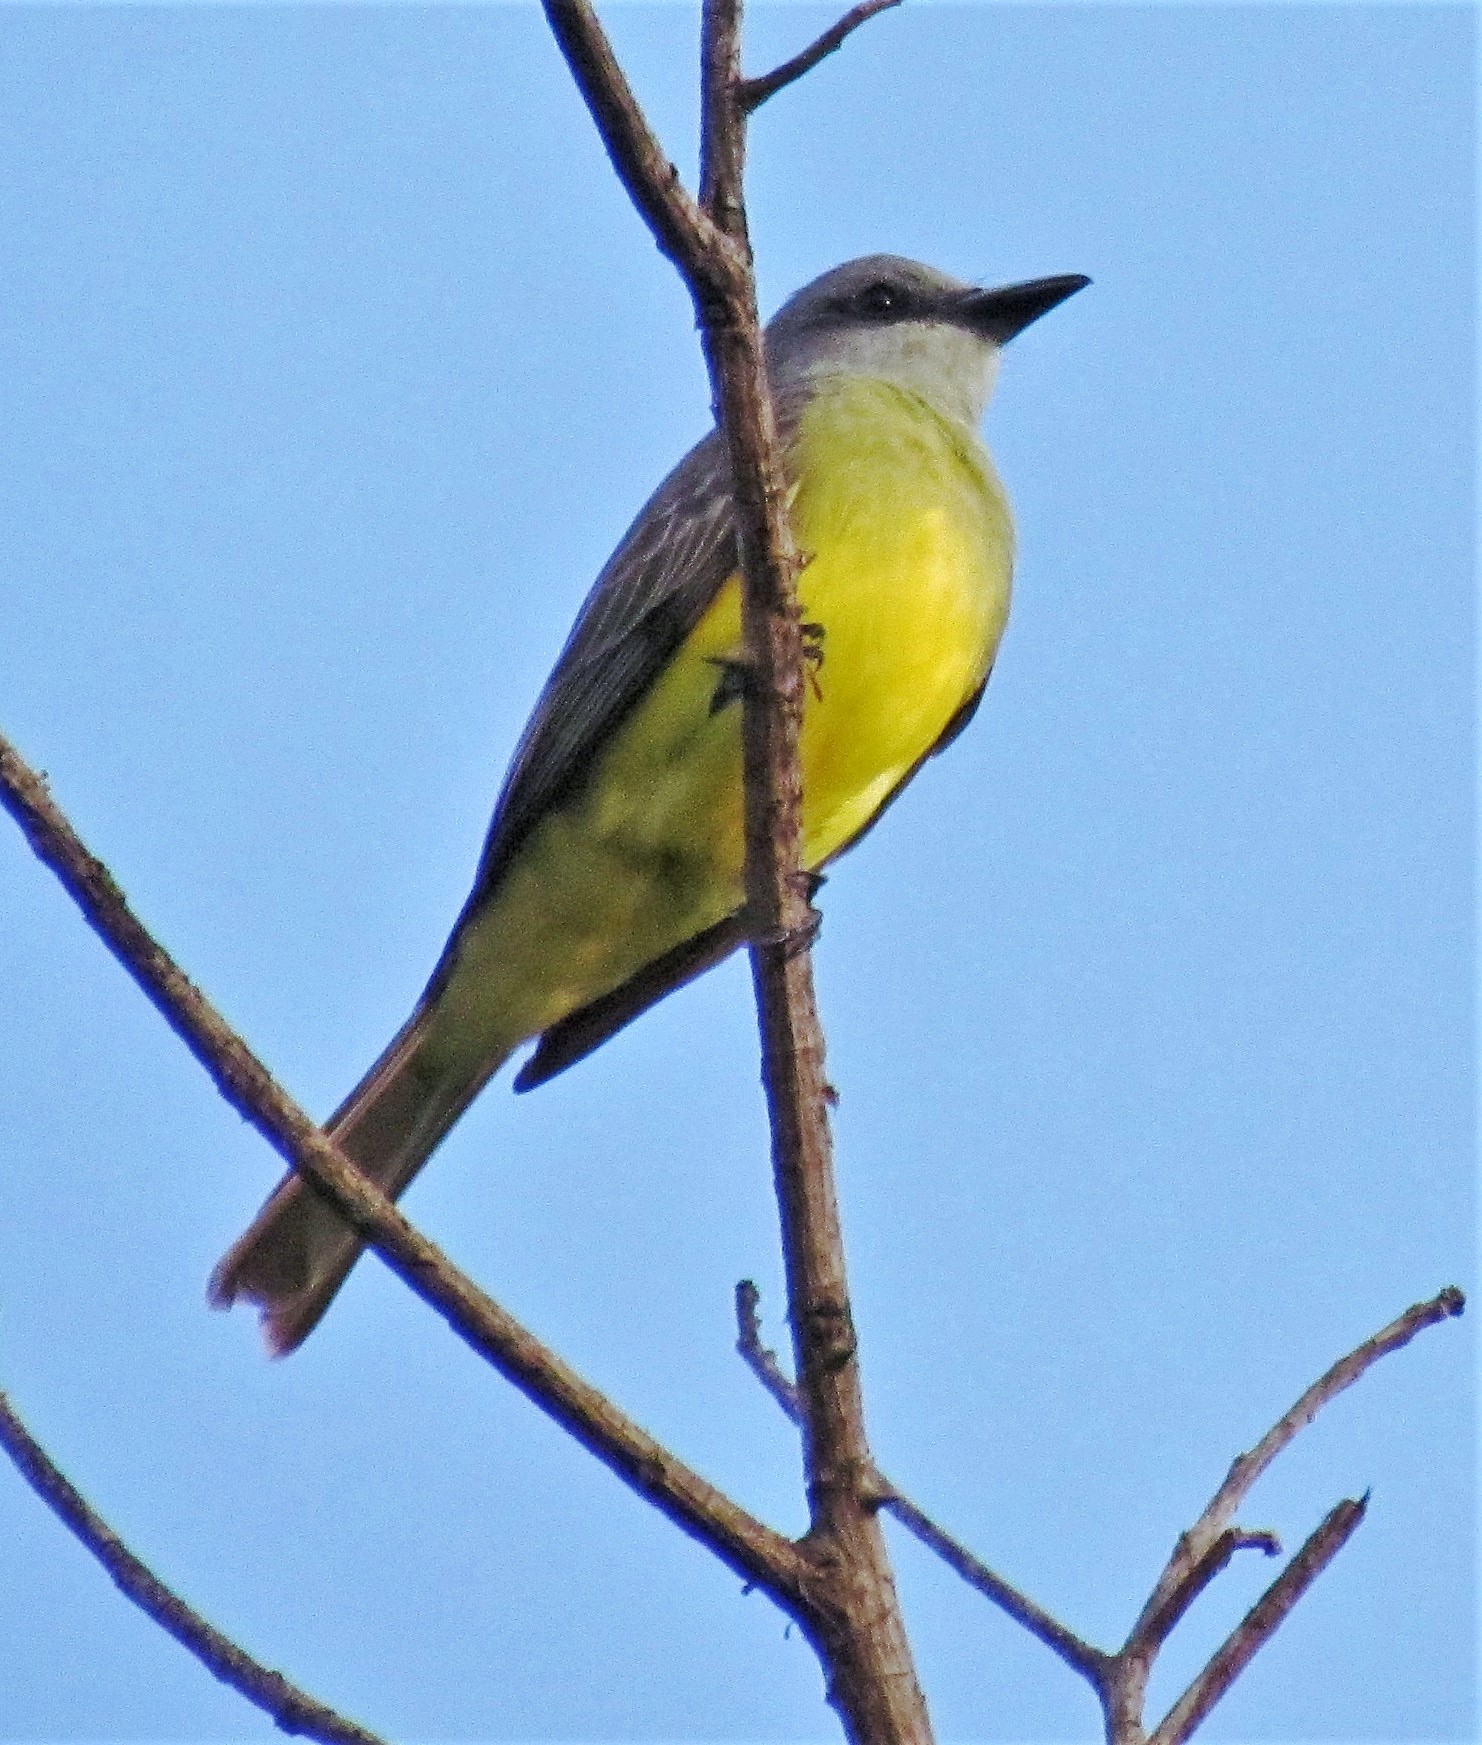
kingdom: Animalia
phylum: Chordata
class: Aves
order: Passeriformes
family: Tyrannidae
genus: Tyrannus
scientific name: Tyrannus melancholicus
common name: Tropical kingbird
